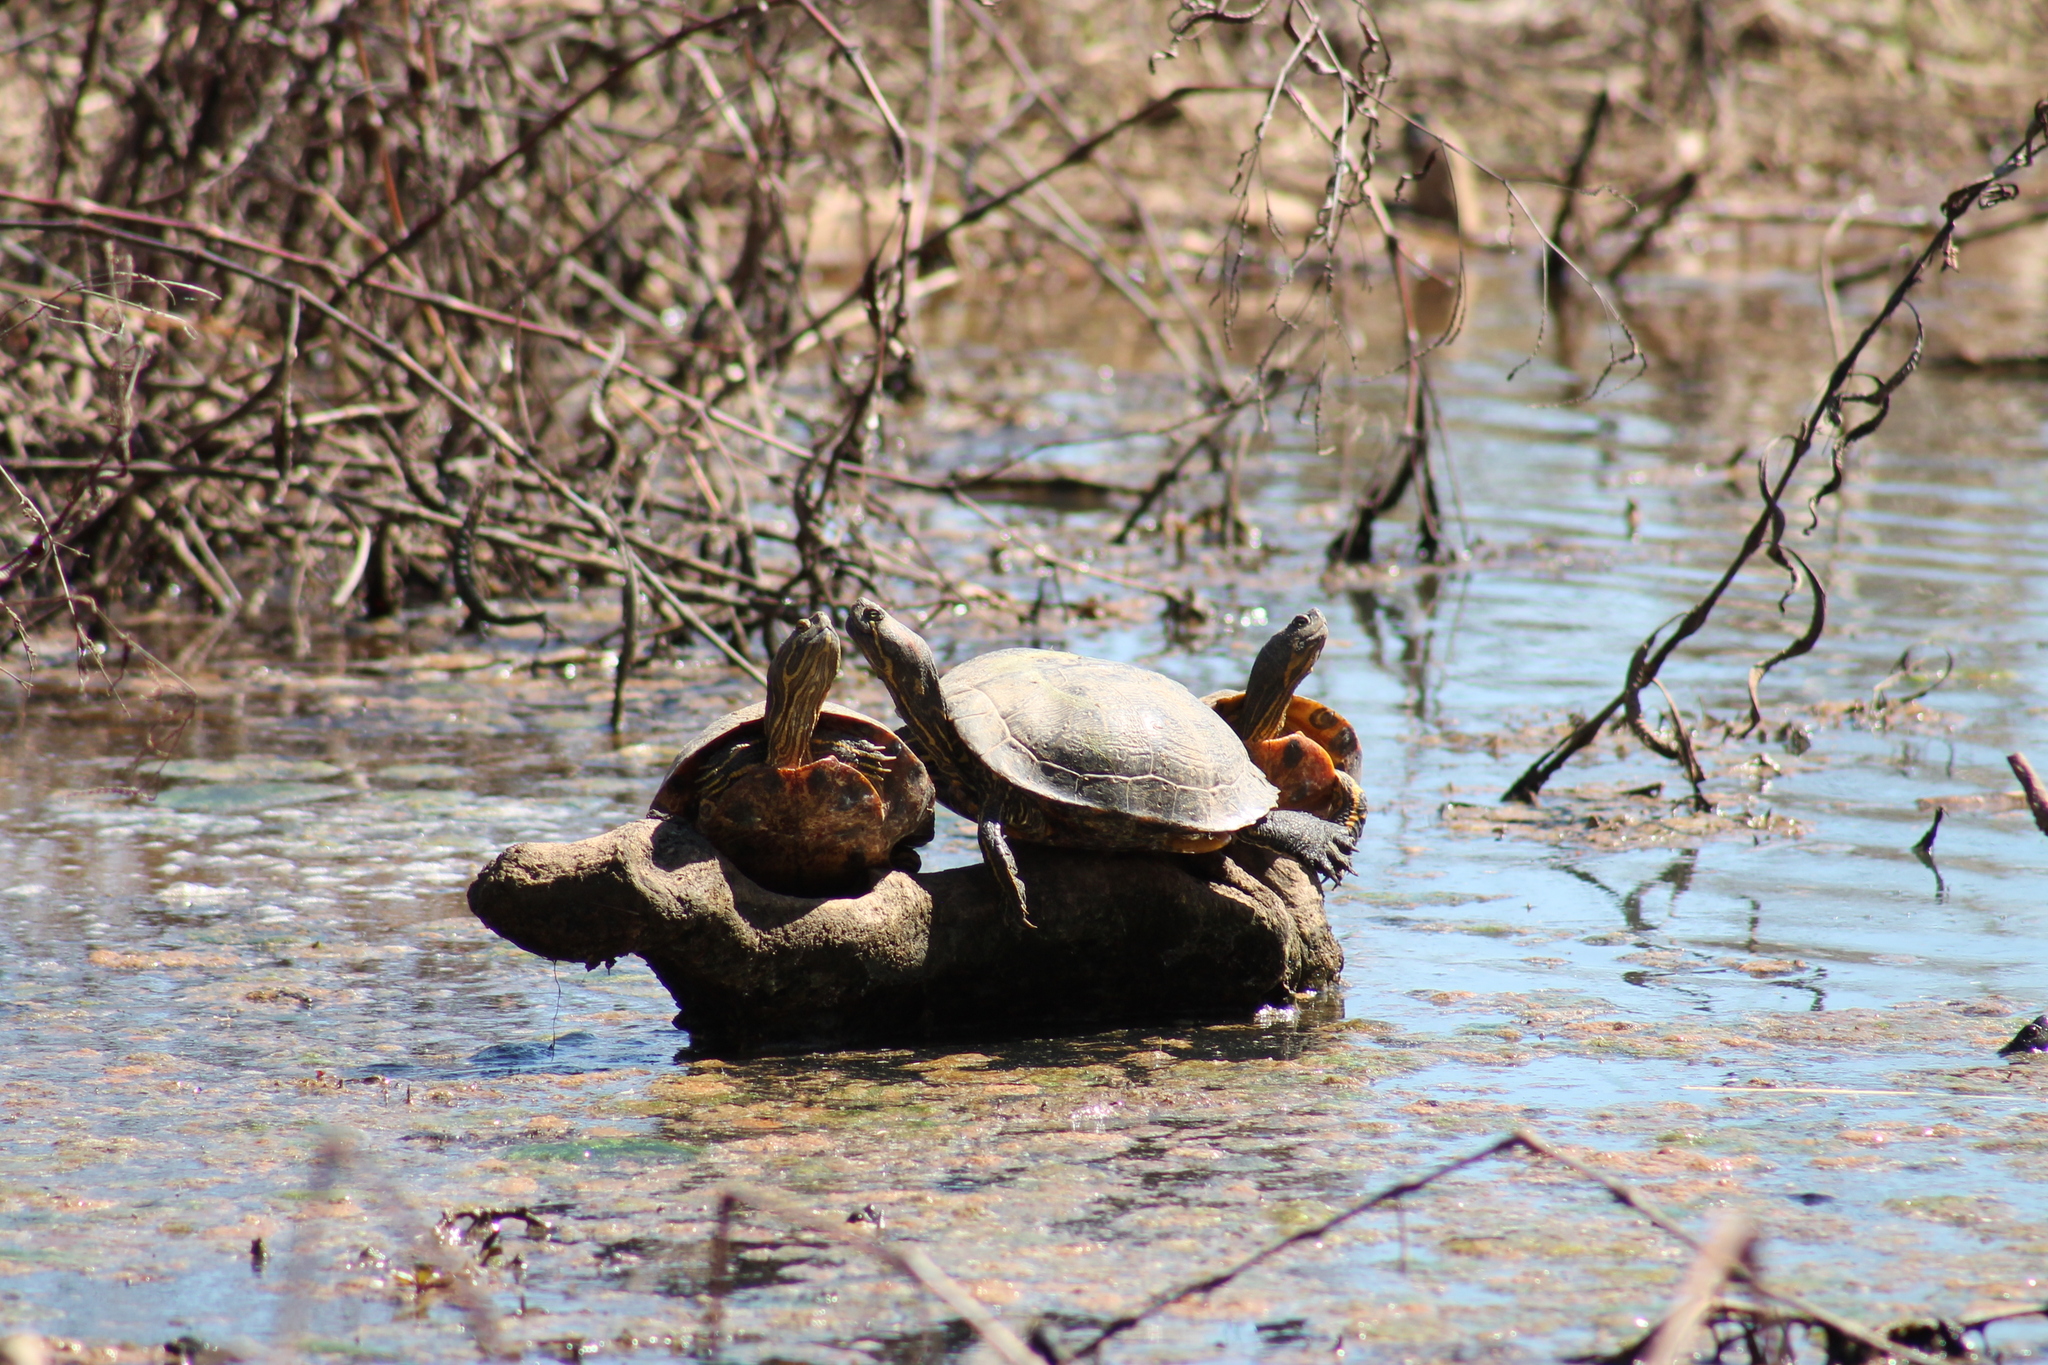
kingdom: Animalia
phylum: Chordata
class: Testudines
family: Emydidae
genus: Trachemys
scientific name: Trachemys scripta
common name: Slider
